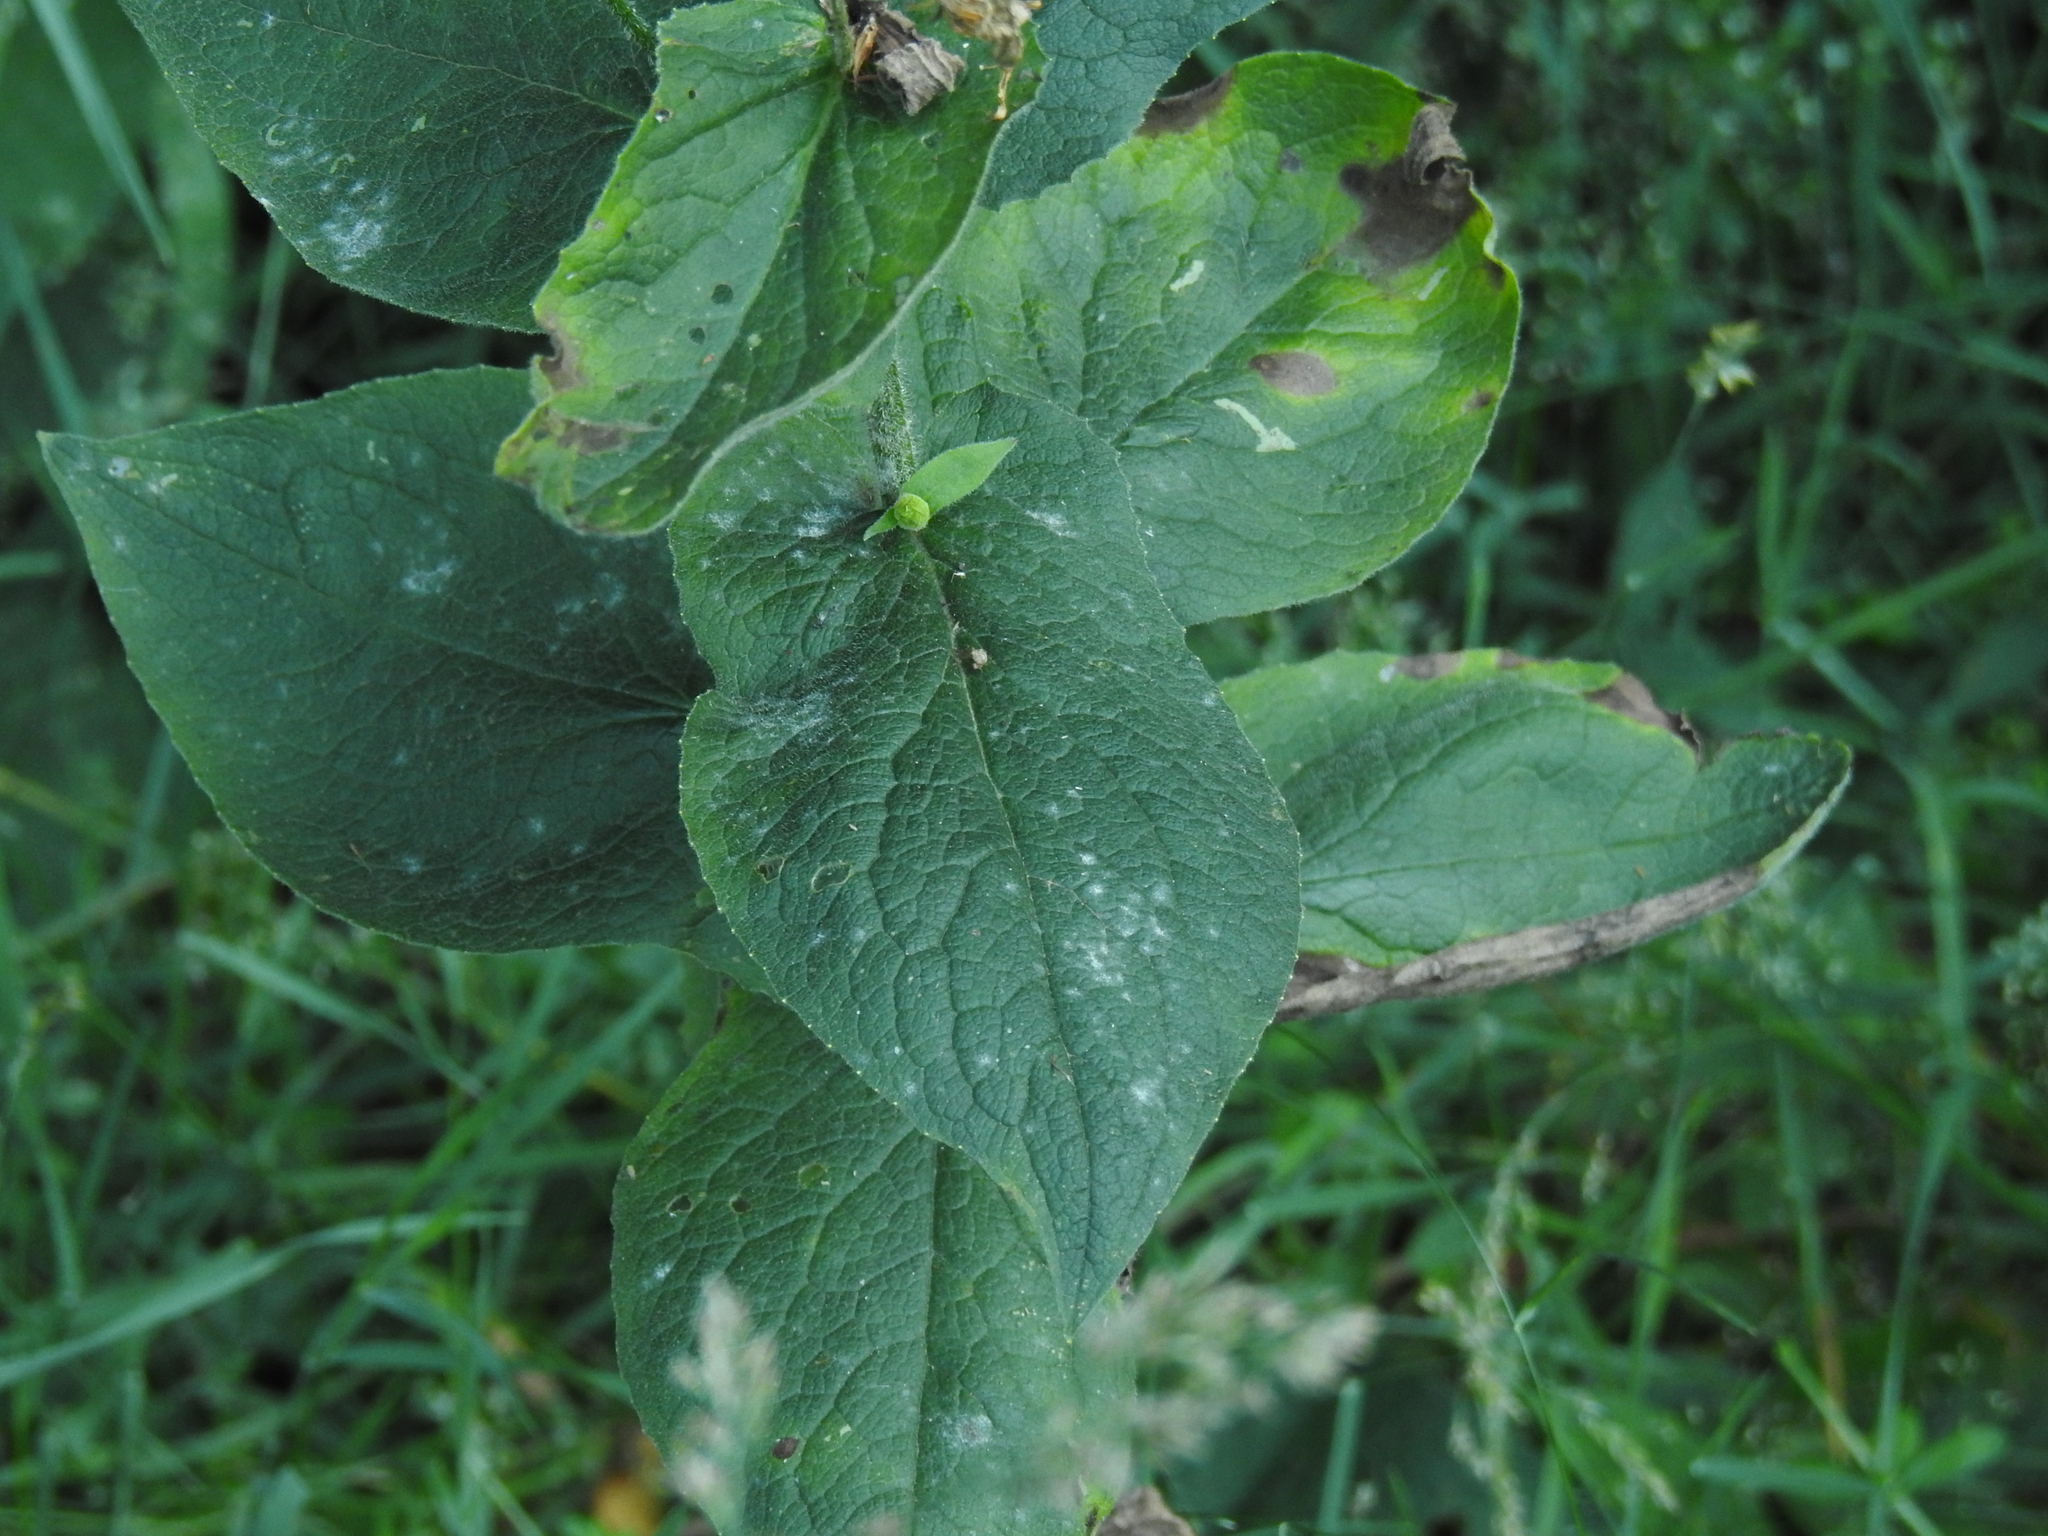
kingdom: Plantae
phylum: Tracheophyta
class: Magnoliopsida
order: Asterales
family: Asteraceae
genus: Doronicum
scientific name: Doronicum austriacum
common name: Austrian leopard's-bane
